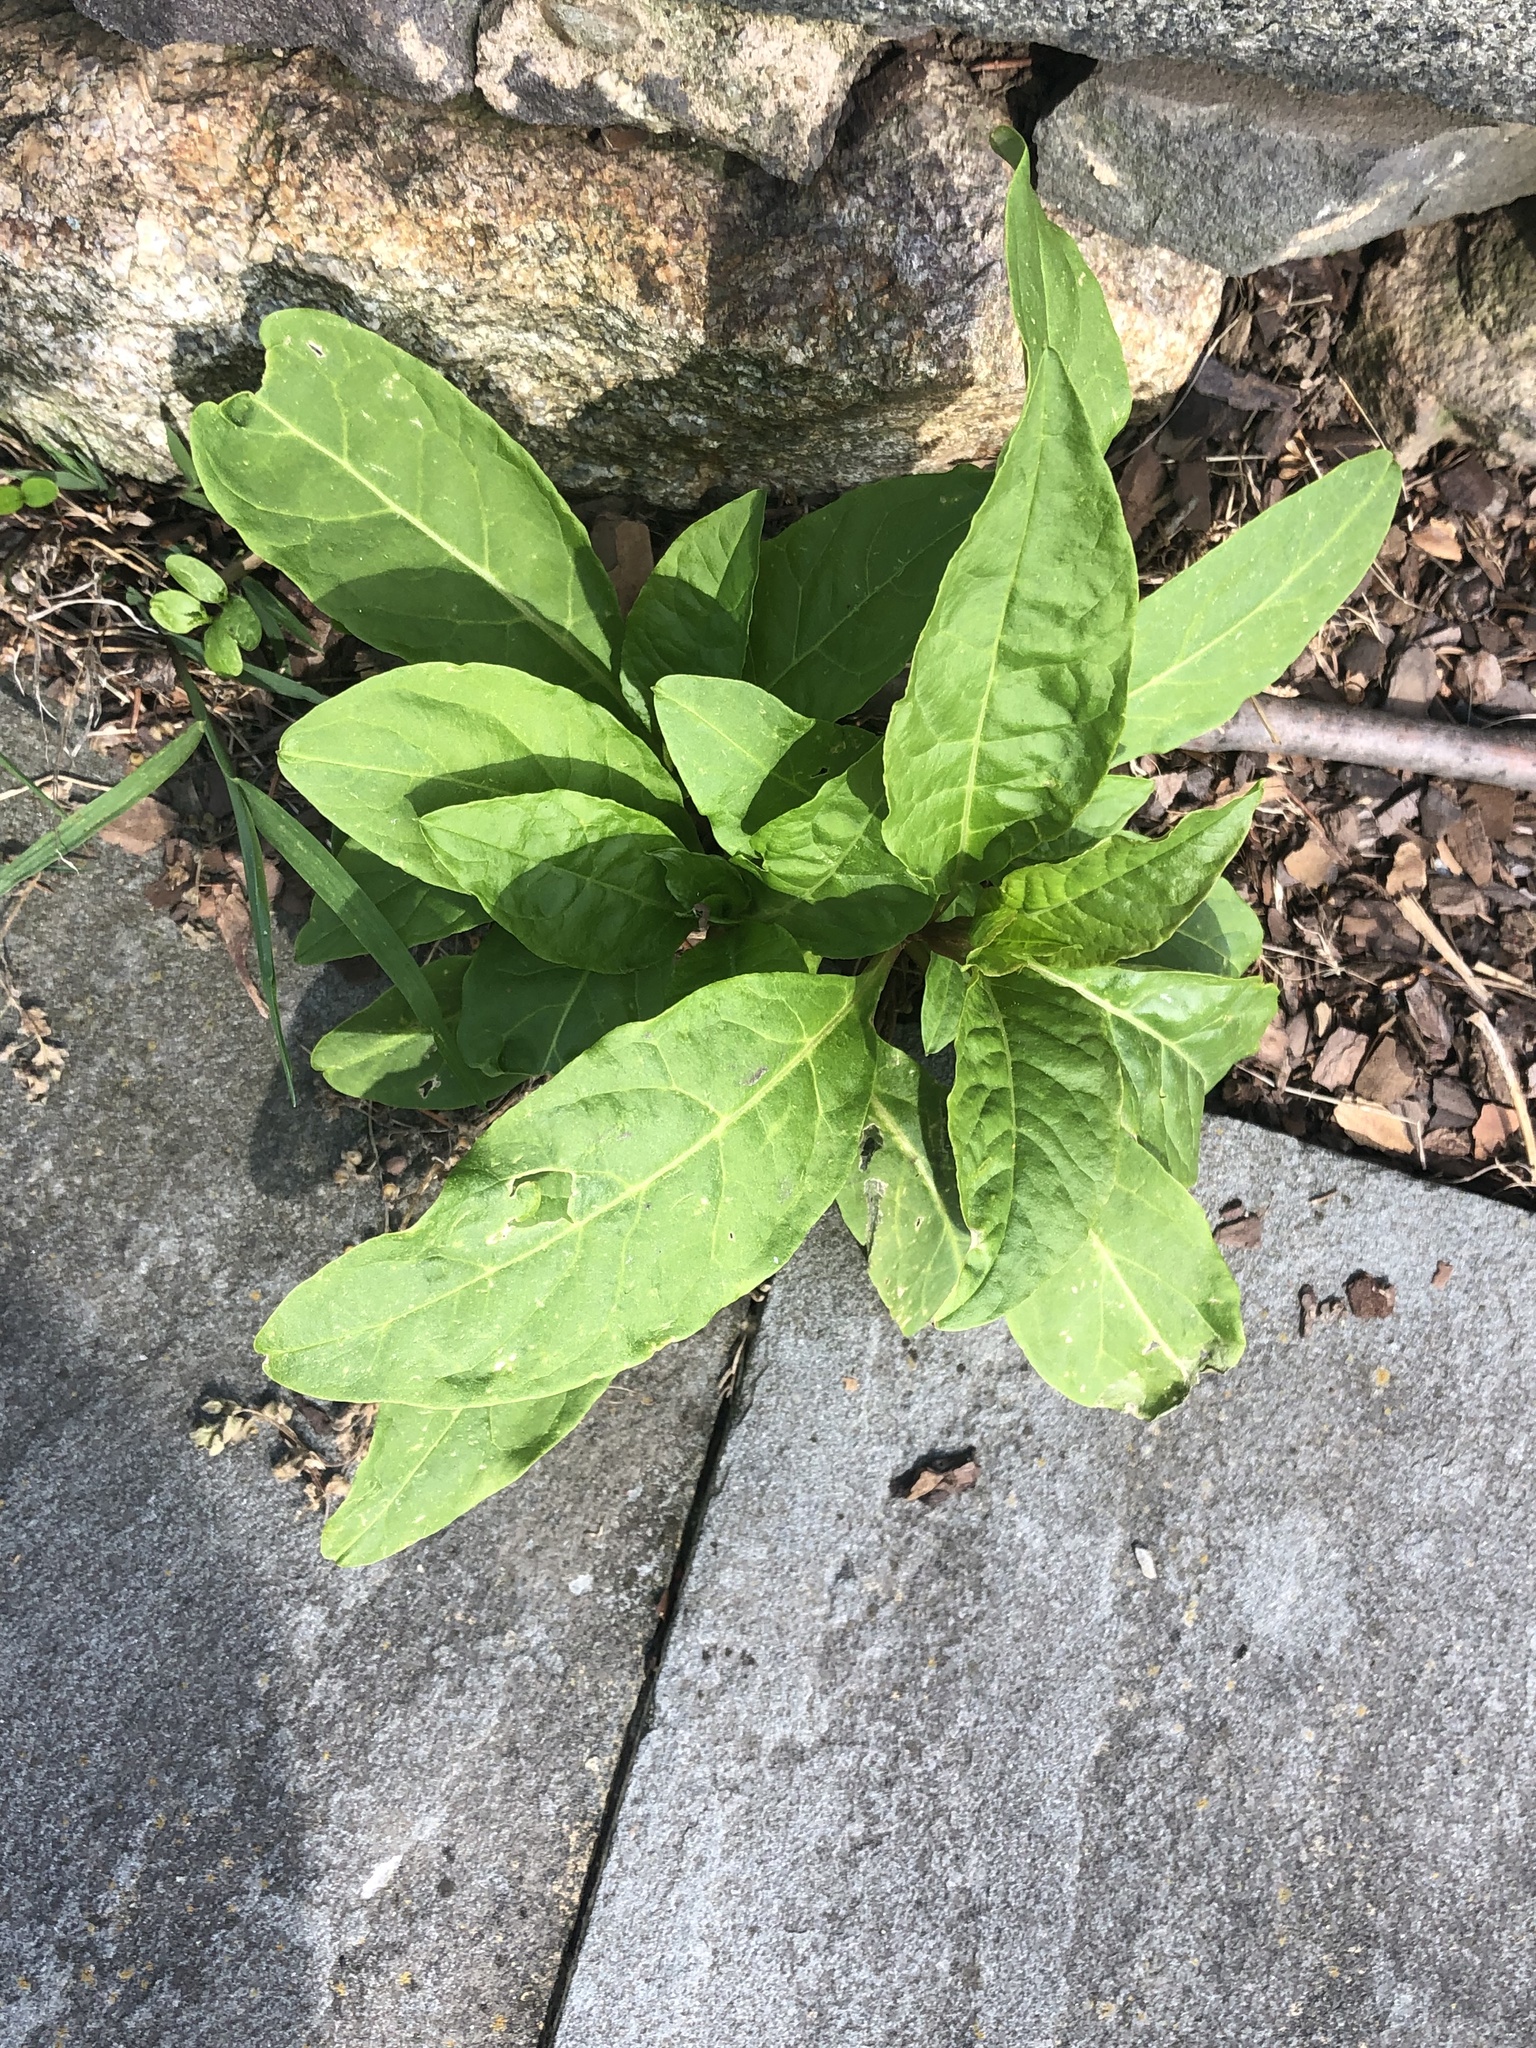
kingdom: Plantae
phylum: Tracheophyta
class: Magnoliopsida
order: Caryophyllales
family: Phytolaccaceae
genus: Phytolacca
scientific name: Phytolacca americana
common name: American pokeweed
